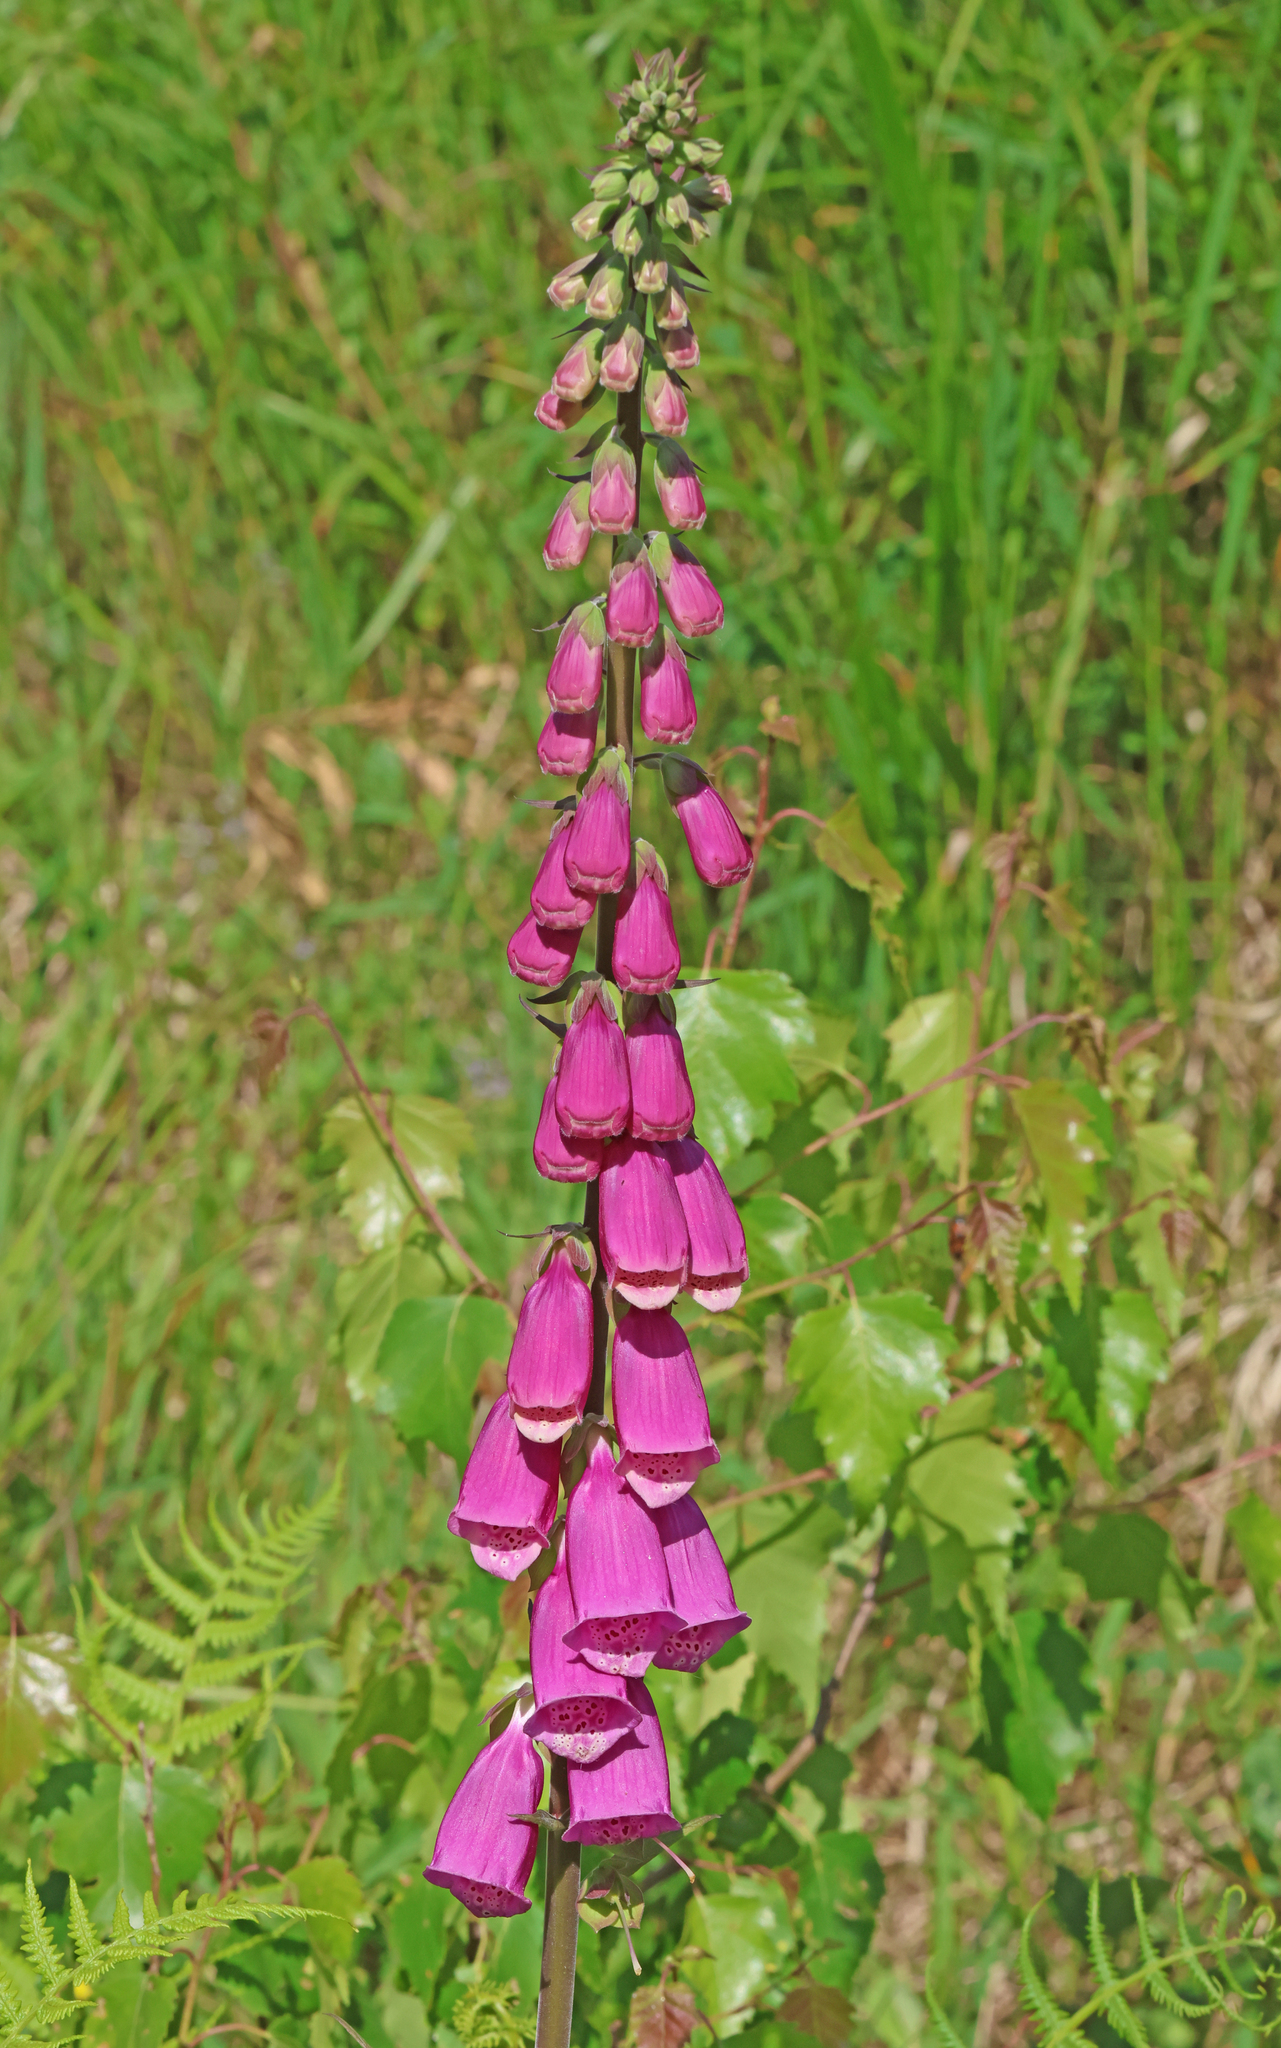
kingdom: Plantae
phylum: Tracheophyta
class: Magnoliopsida
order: Lamiales
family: Plantaginaceae
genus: Digitalis
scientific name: Digitalis purpurea
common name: Foxglove
